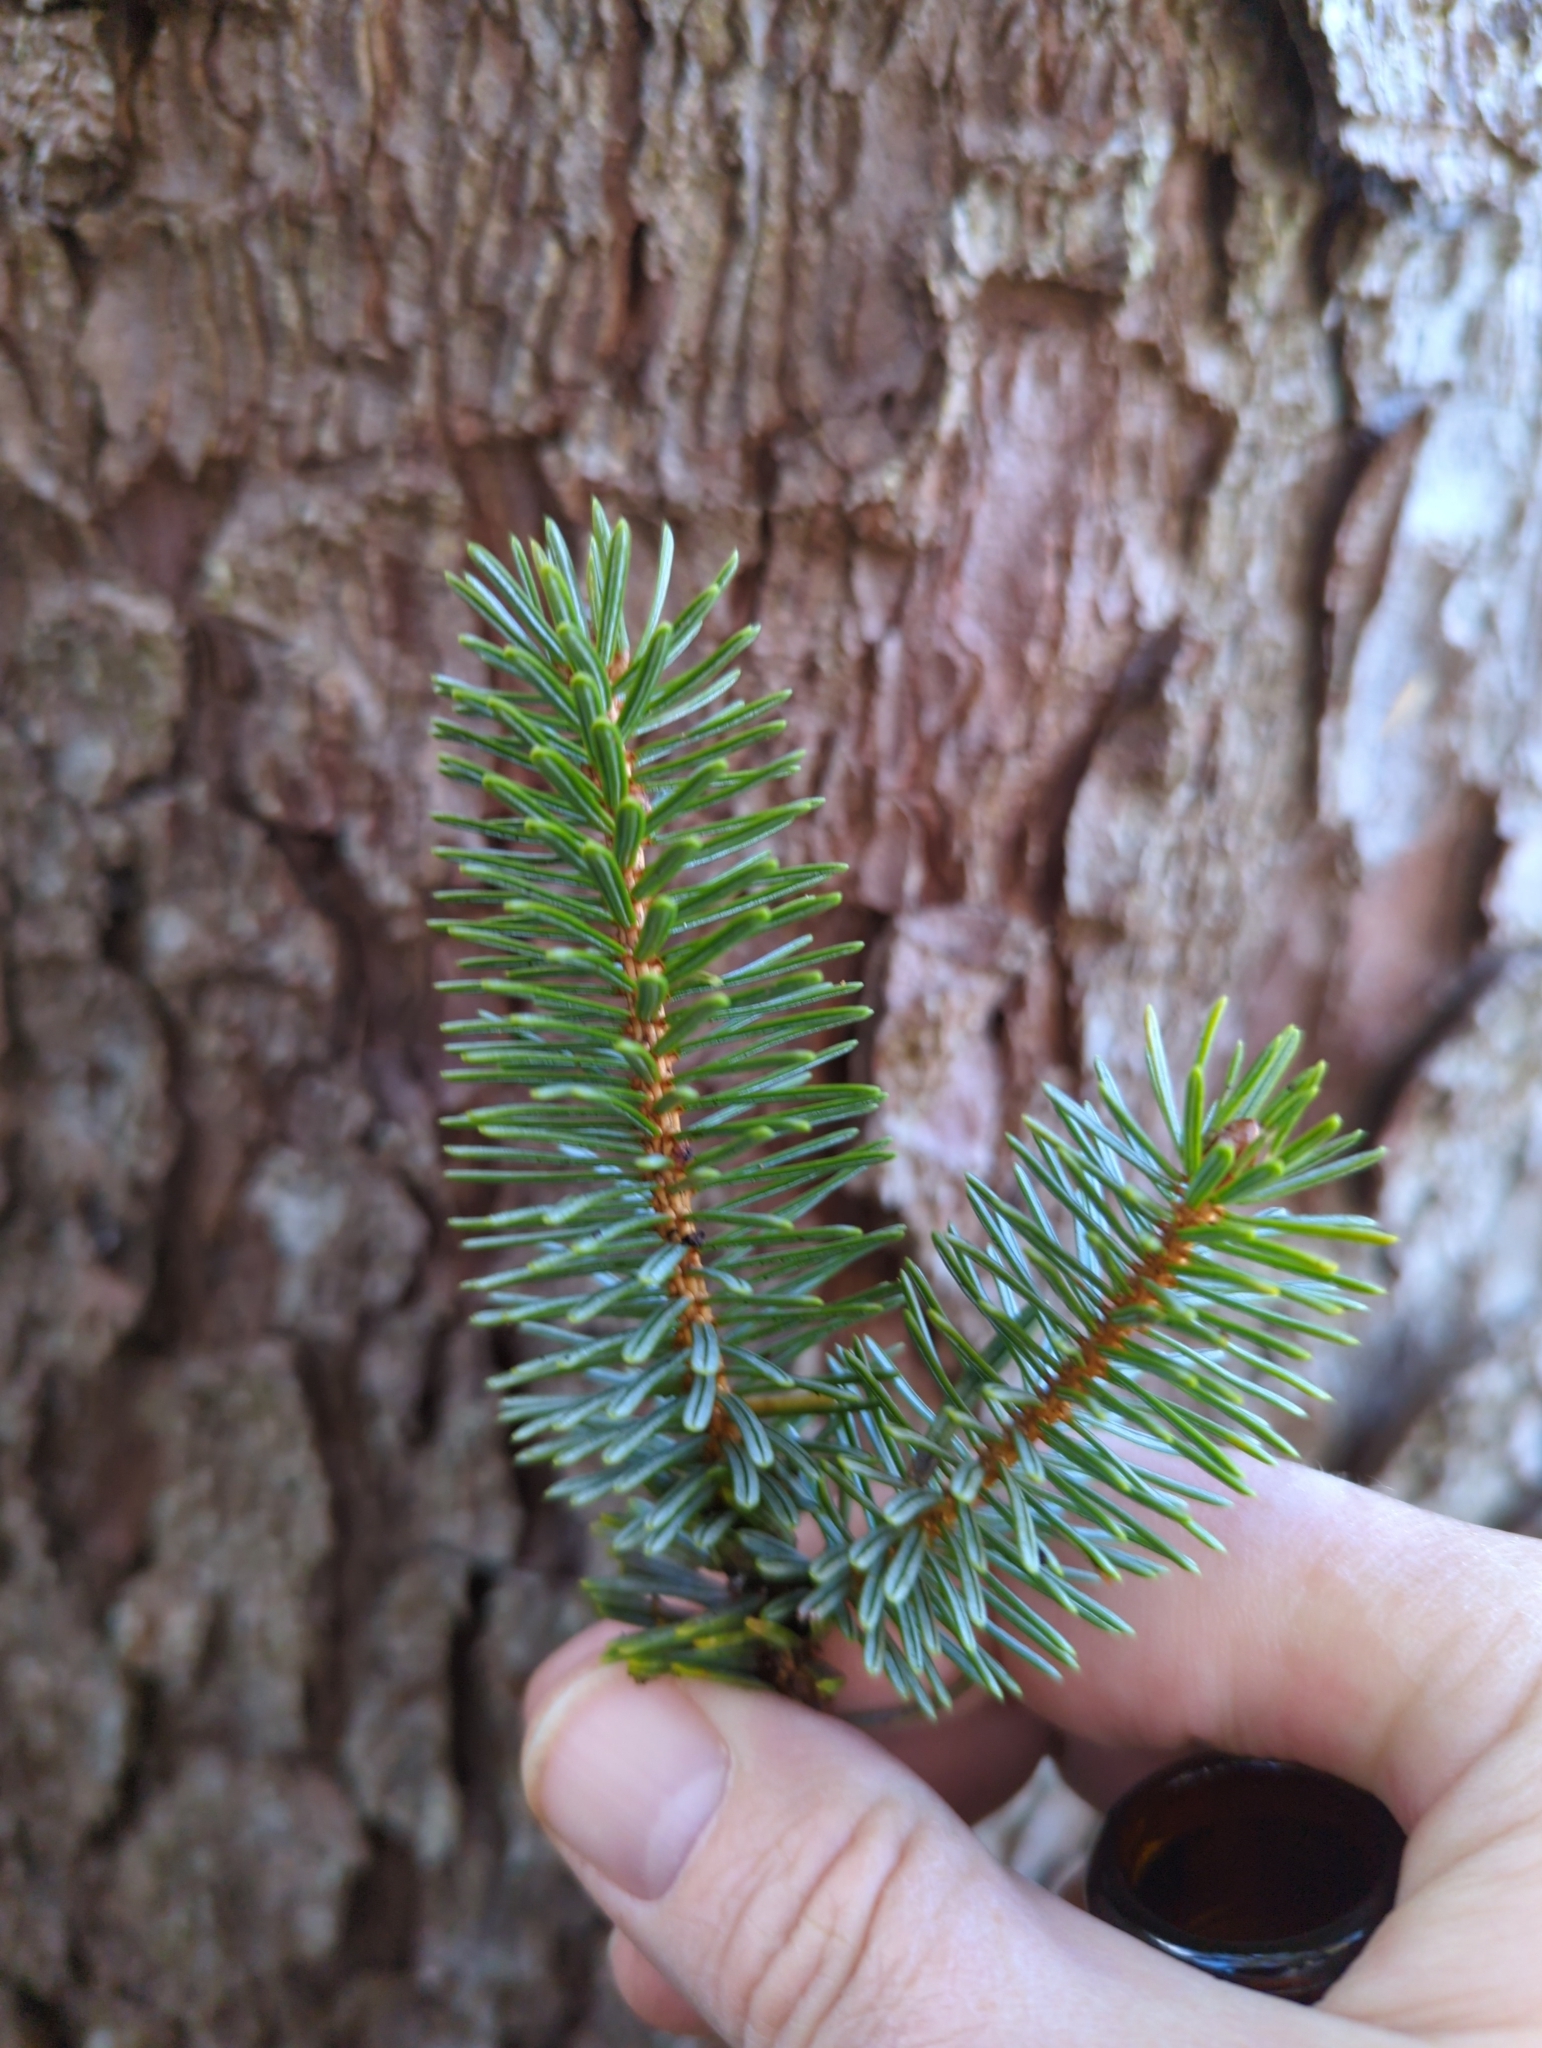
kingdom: Plantae
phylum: Tracheophyta
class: Pinopsida
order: Pinales
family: Pinaceae
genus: Picea
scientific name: Picea sitchensis
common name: Sitka spruce
